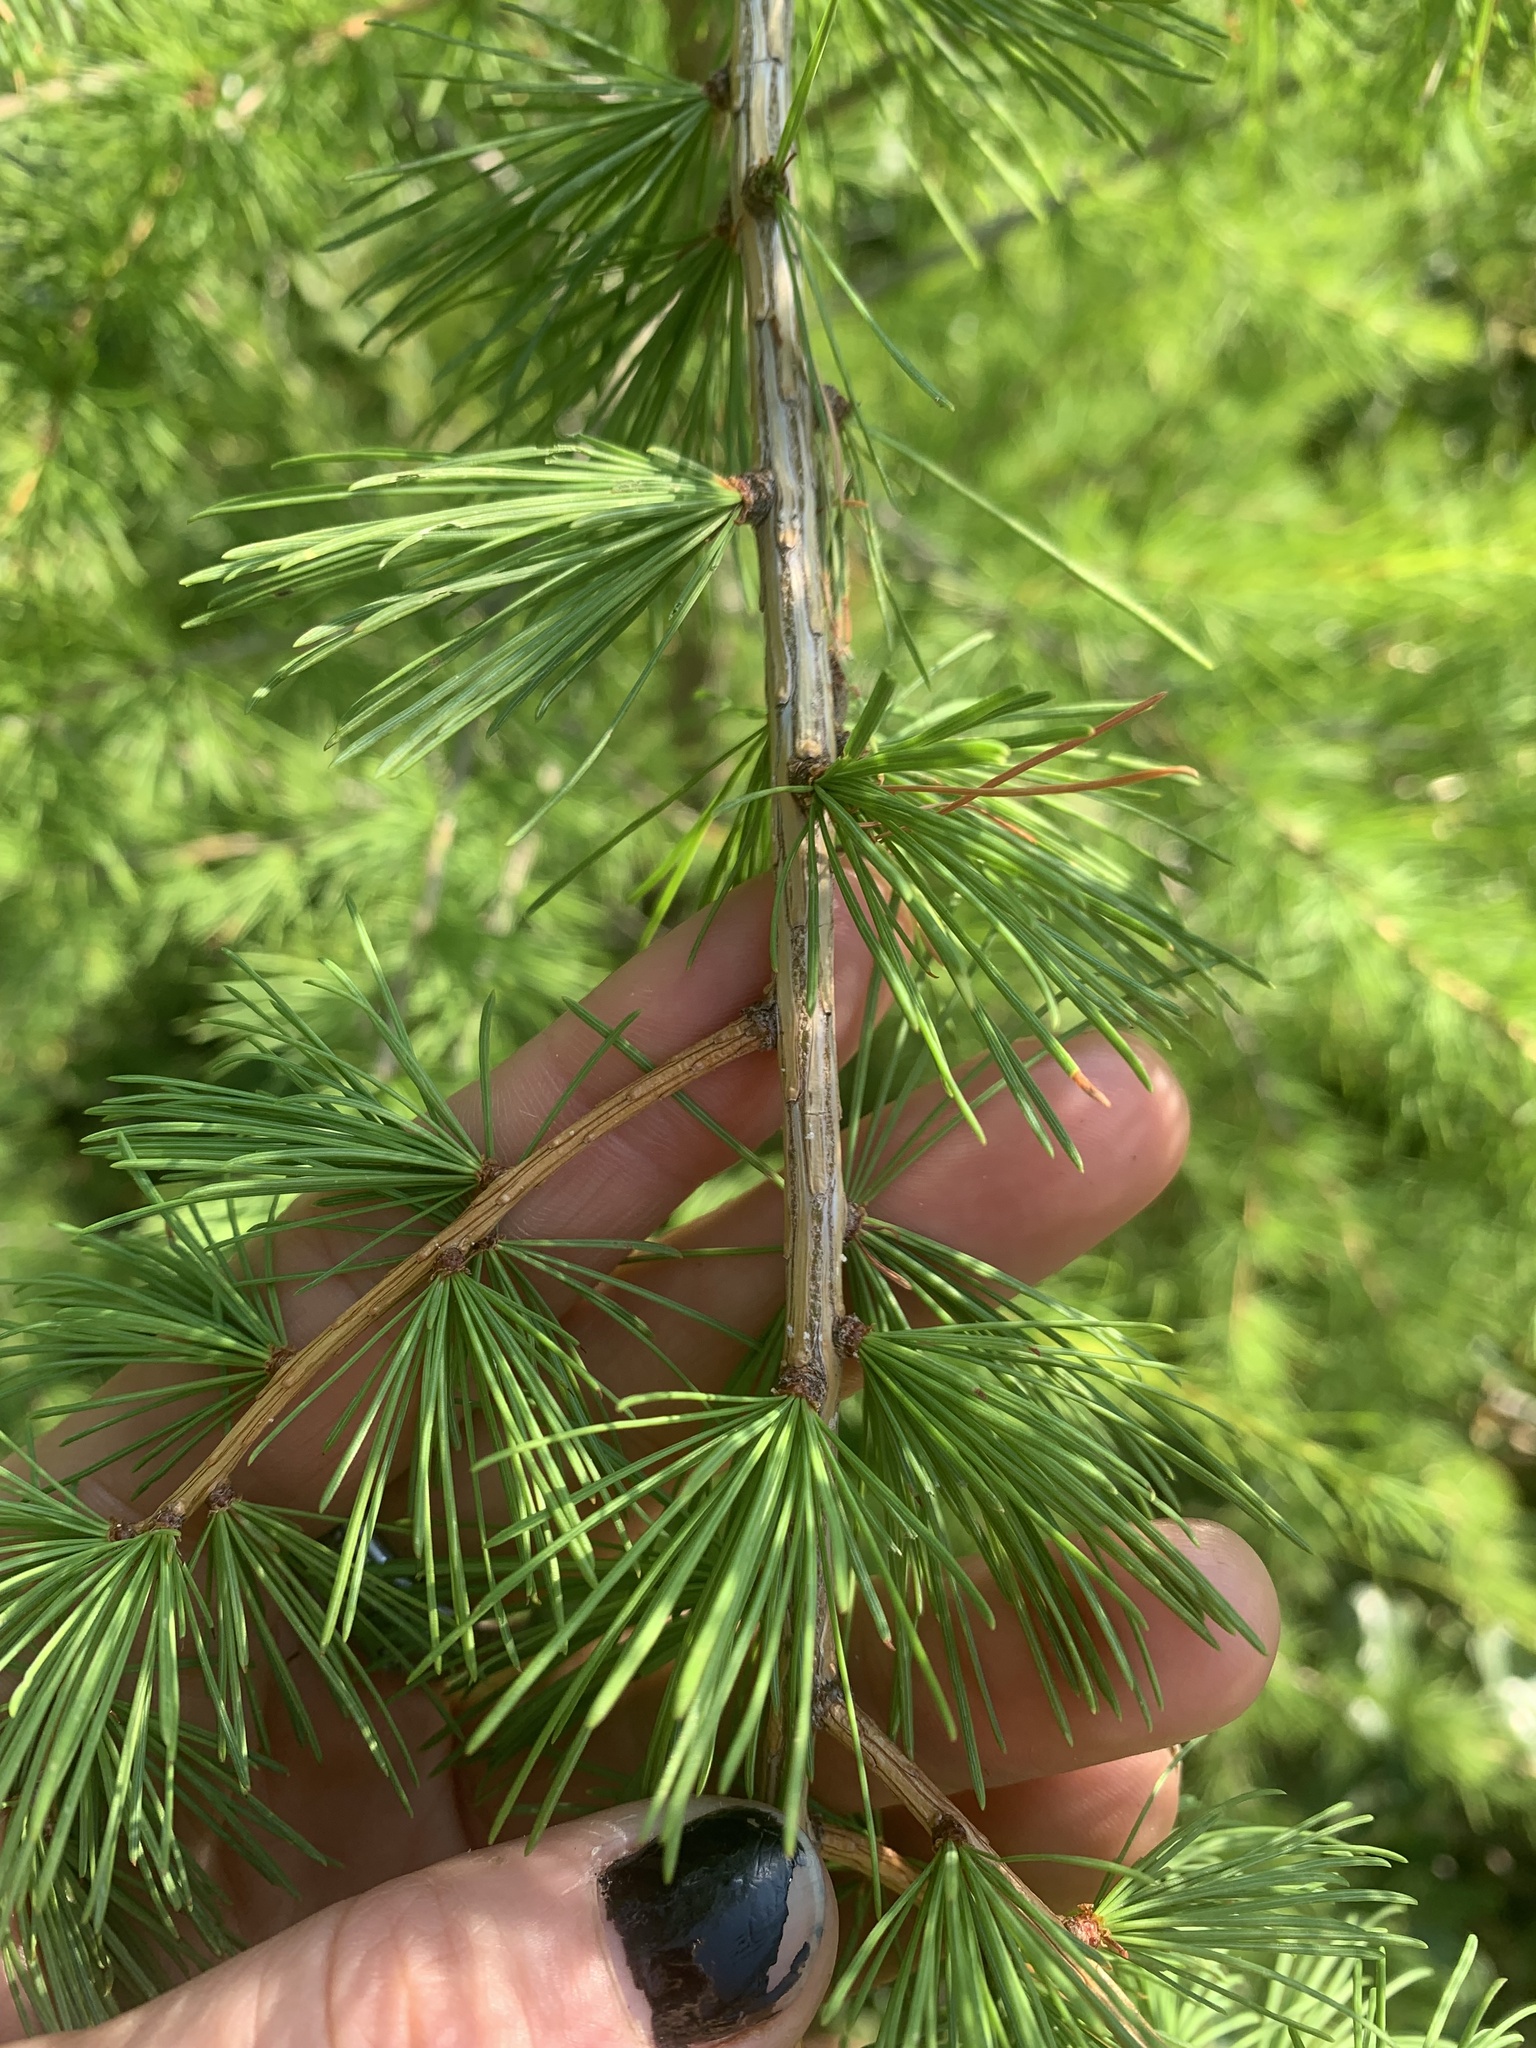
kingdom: Plantae
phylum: Tracheophyta
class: Pinopsida
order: Pinales
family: Pinaceae
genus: Larix
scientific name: Larix occidentalis
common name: Western larch
